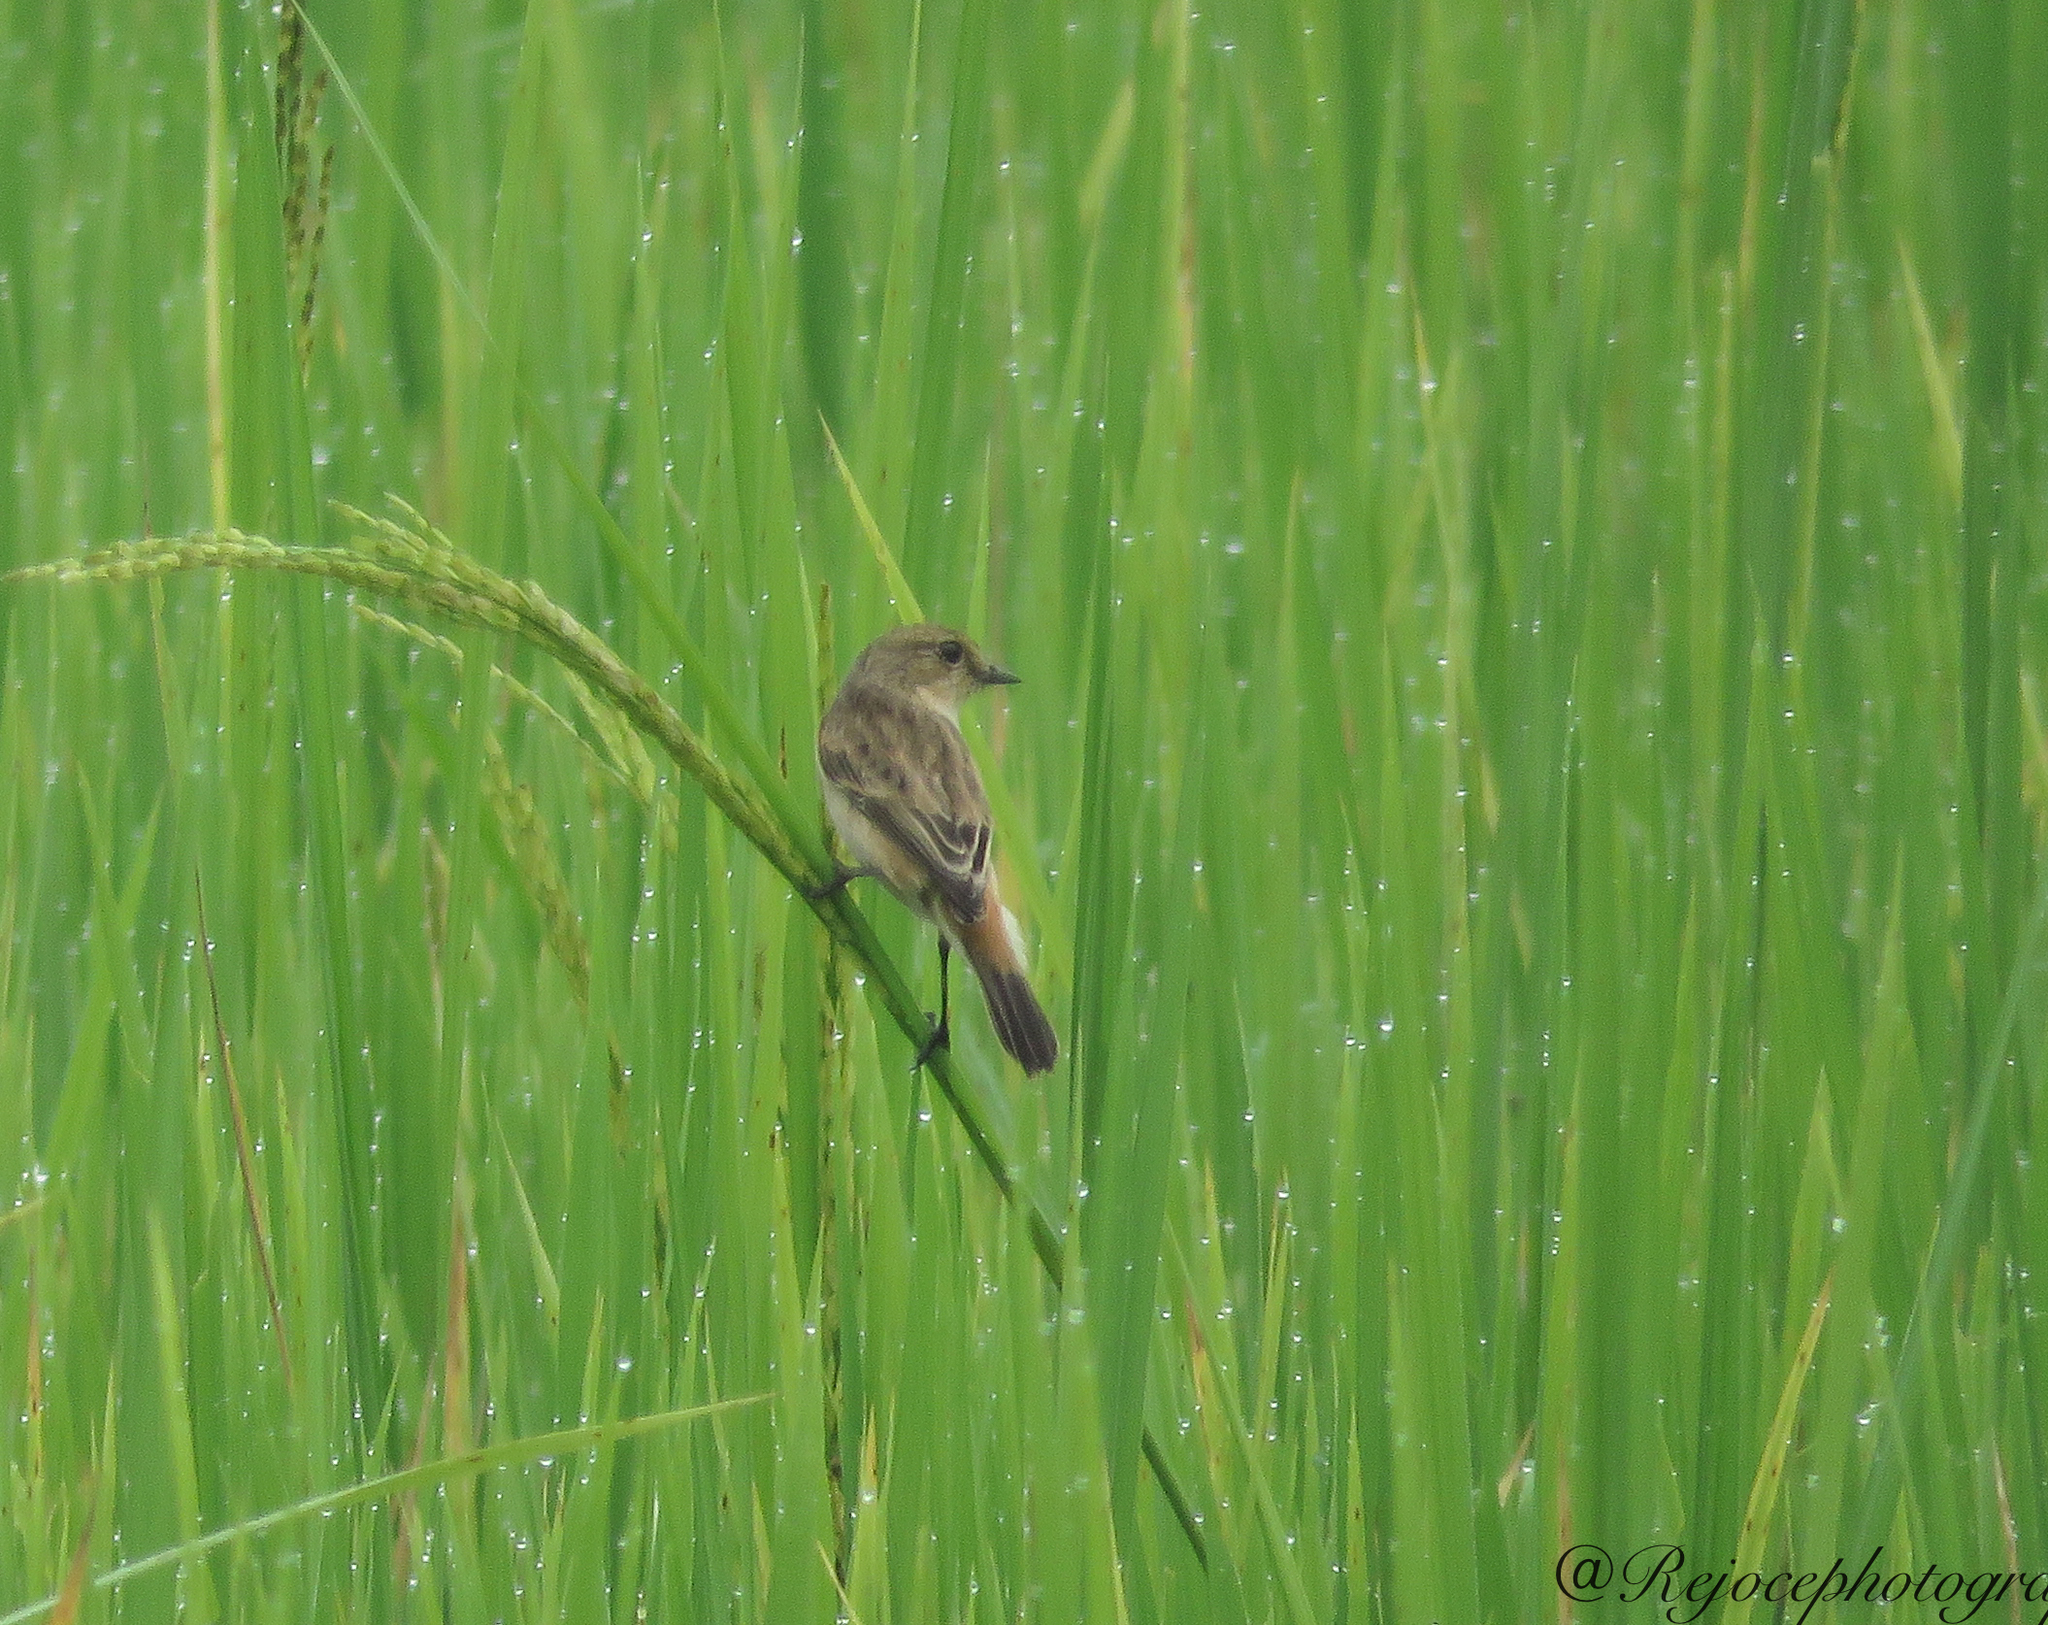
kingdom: Animalia
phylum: Chordata
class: Aves
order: Passeriformes
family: Muscicapidae
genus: Saxicola
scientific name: Saxicola maurus
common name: Siberian stonechat
